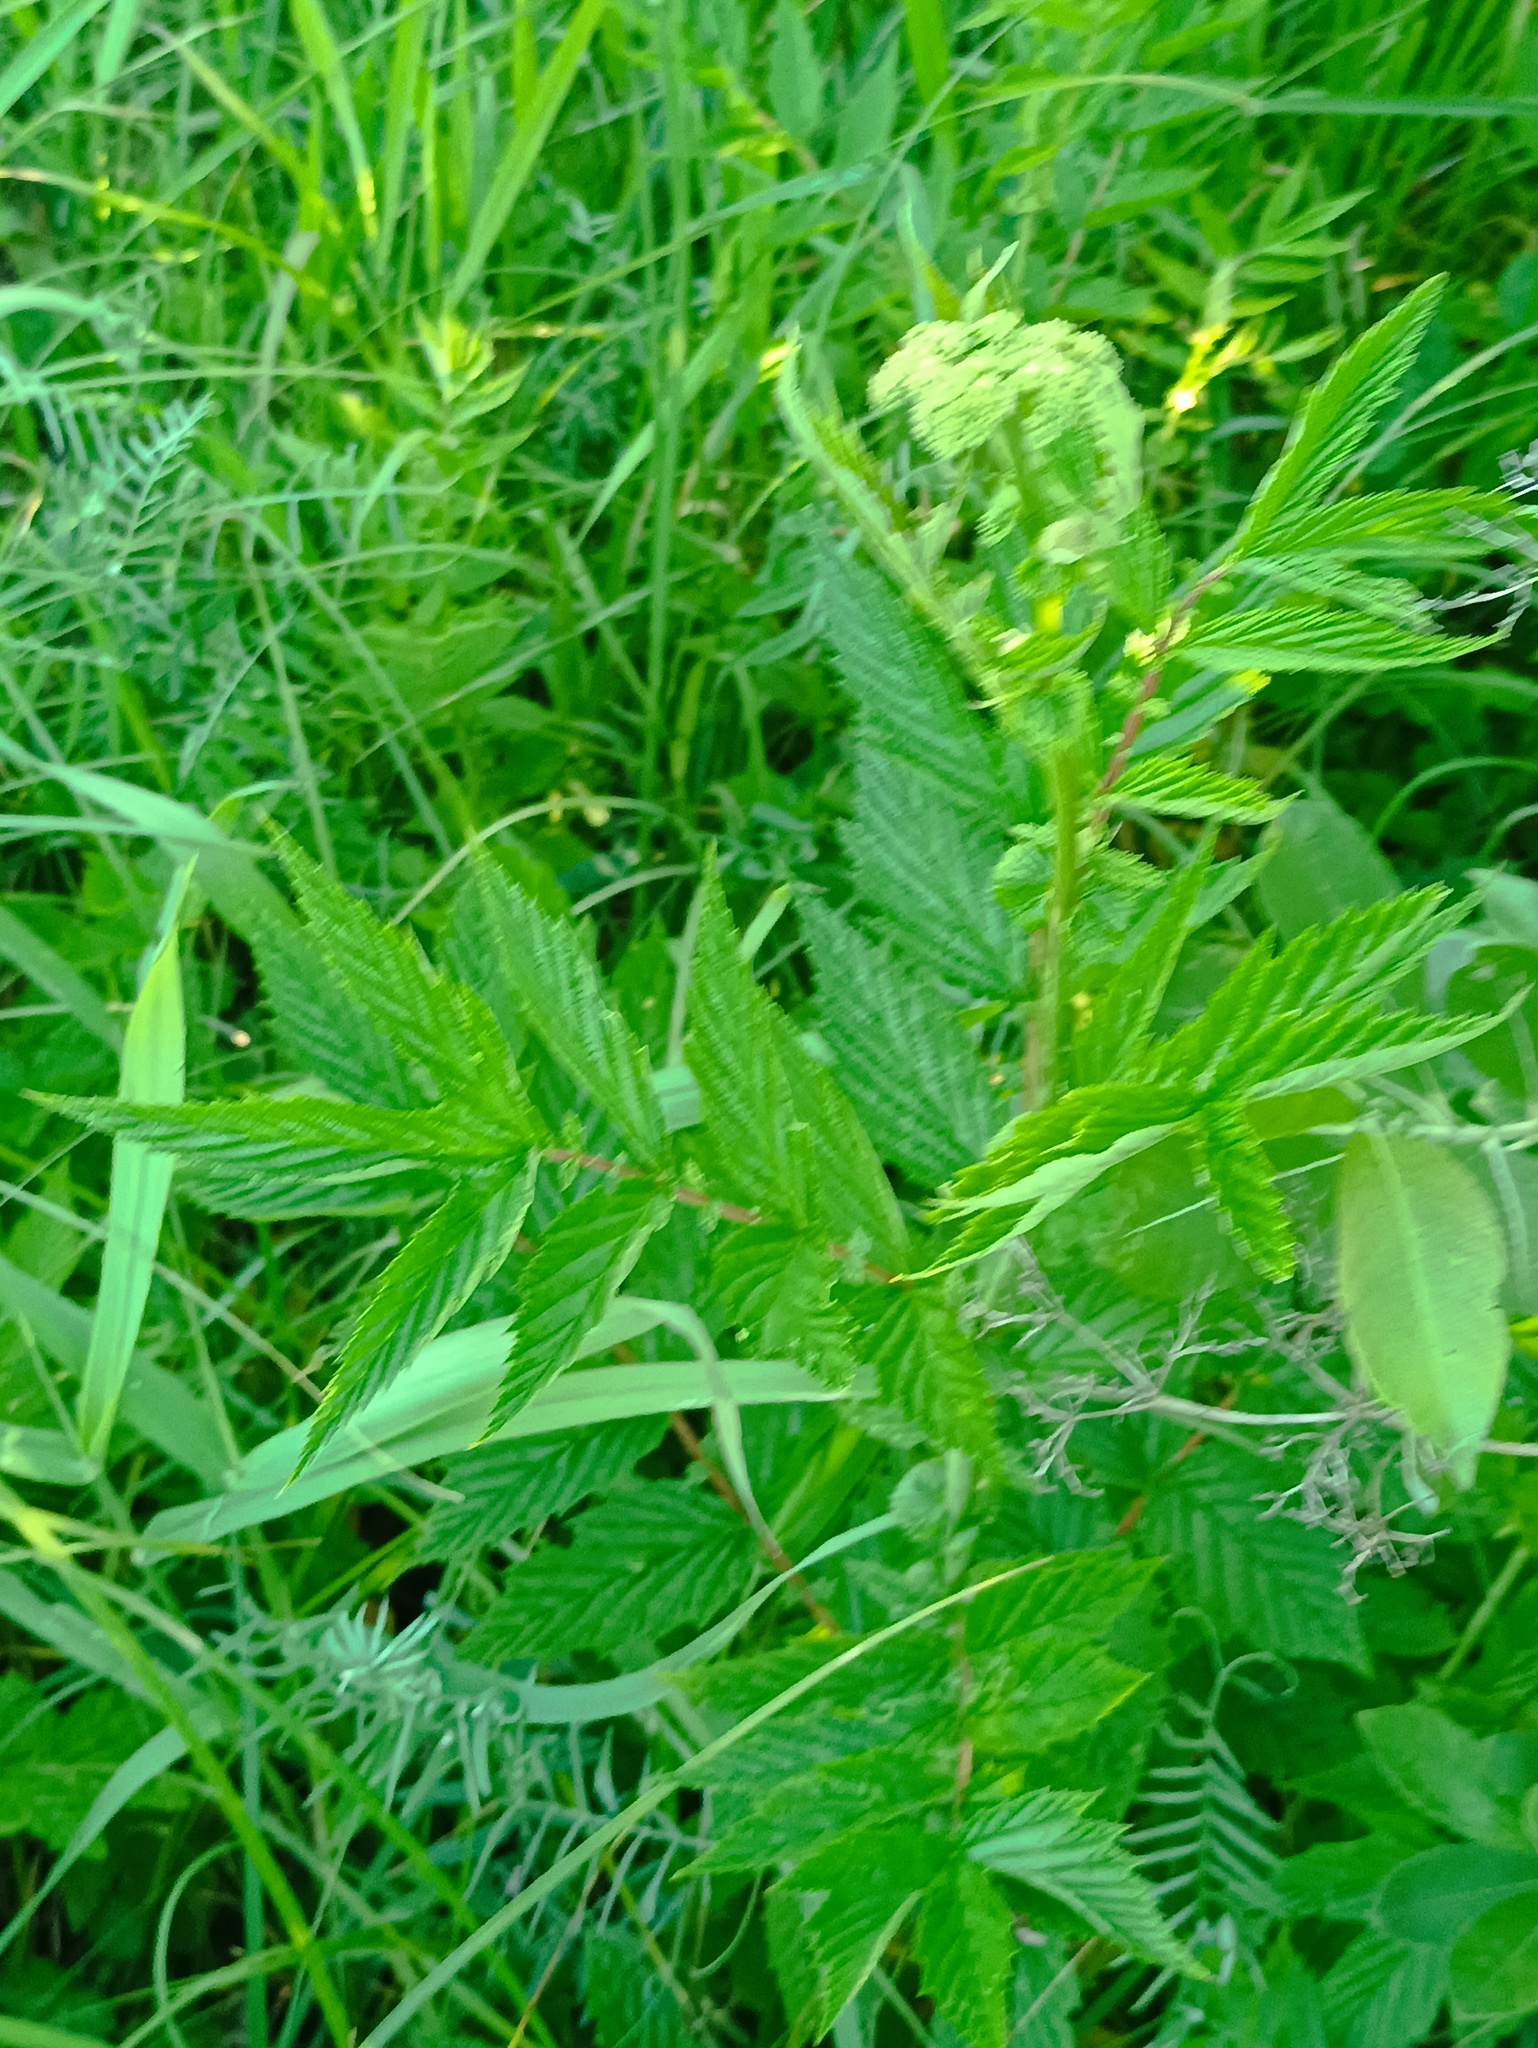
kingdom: Plantae
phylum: Tracheophyta
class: Magnoliopsida
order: Rosales
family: Rosaceae
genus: Filipendula
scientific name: Filipendula ulmaria
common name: Meadowsweet
